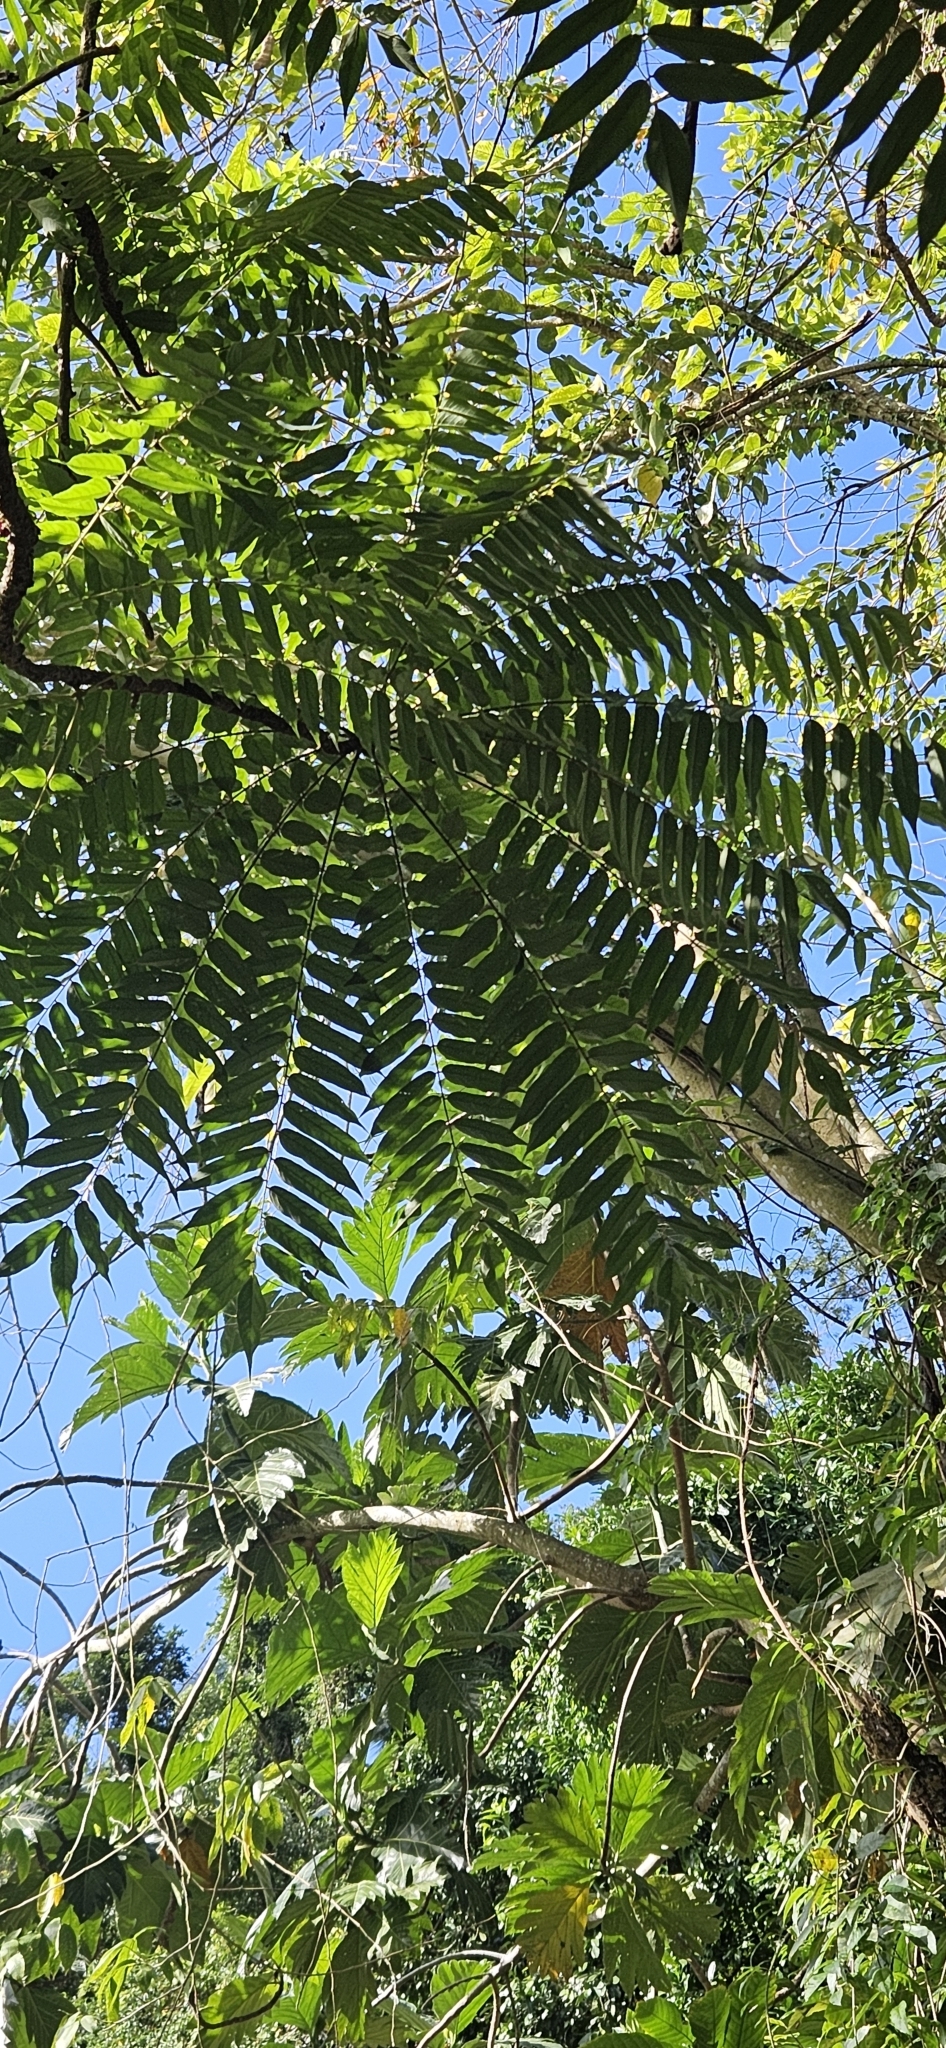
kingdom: Plantae
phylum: Tracheophyta
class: Magnoliopsida
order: Oxalidales
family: Oxalidaceae
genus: Averrhoa
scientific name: Averrhoa bilimbi
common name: Bilimbi
